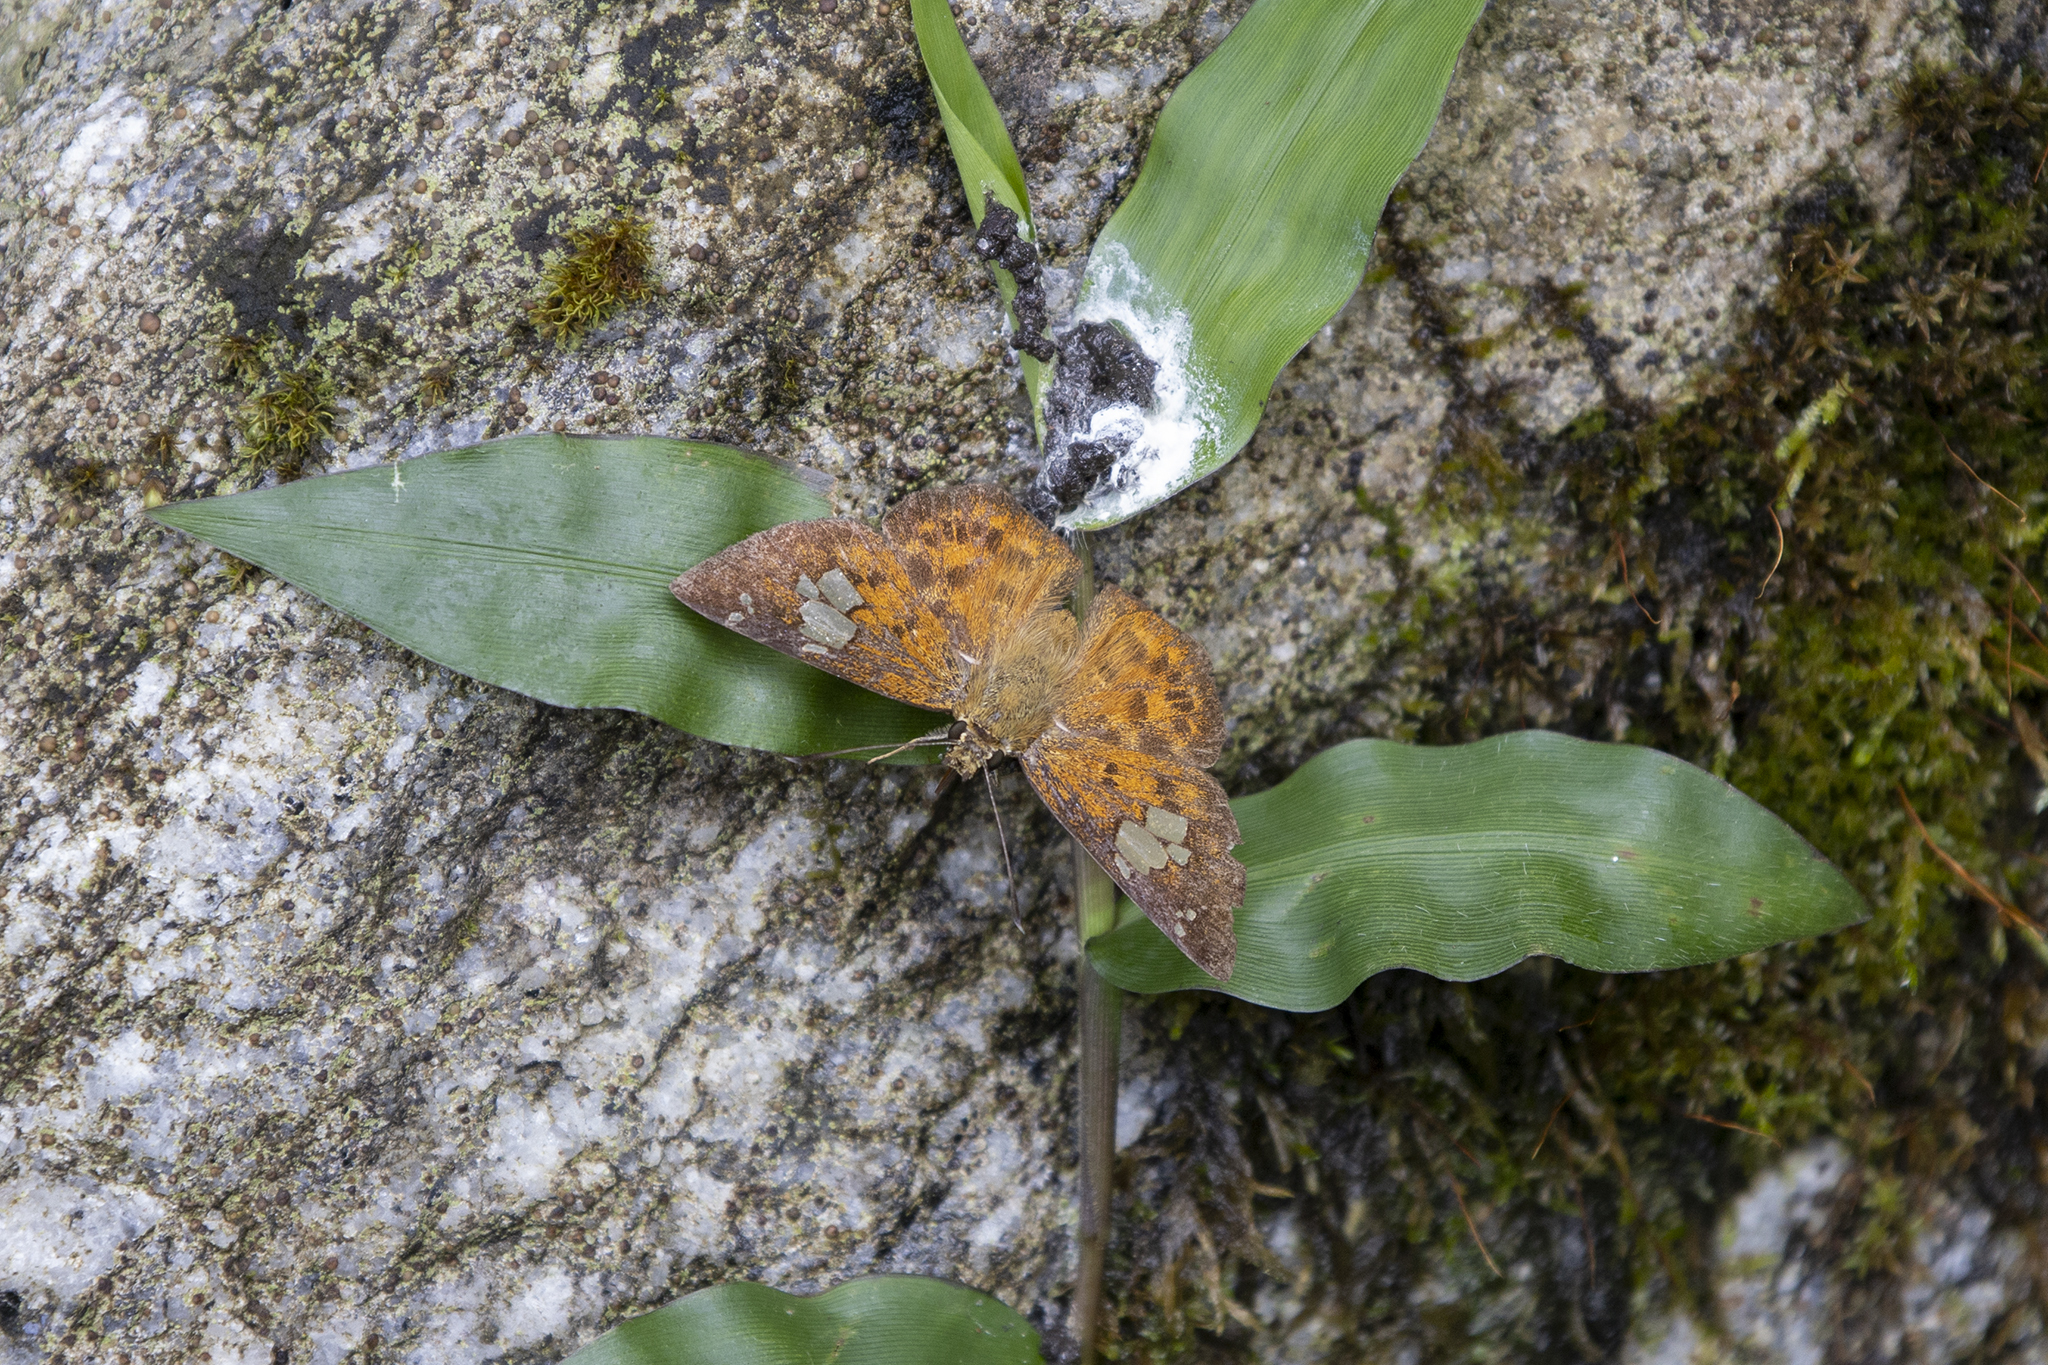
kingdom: Animalia
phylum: Arthropoda
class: Insecta
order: Lepidoptera
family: Hesperiidae
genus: Pseudocoladenia
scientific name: Pseudocoladenia dan
